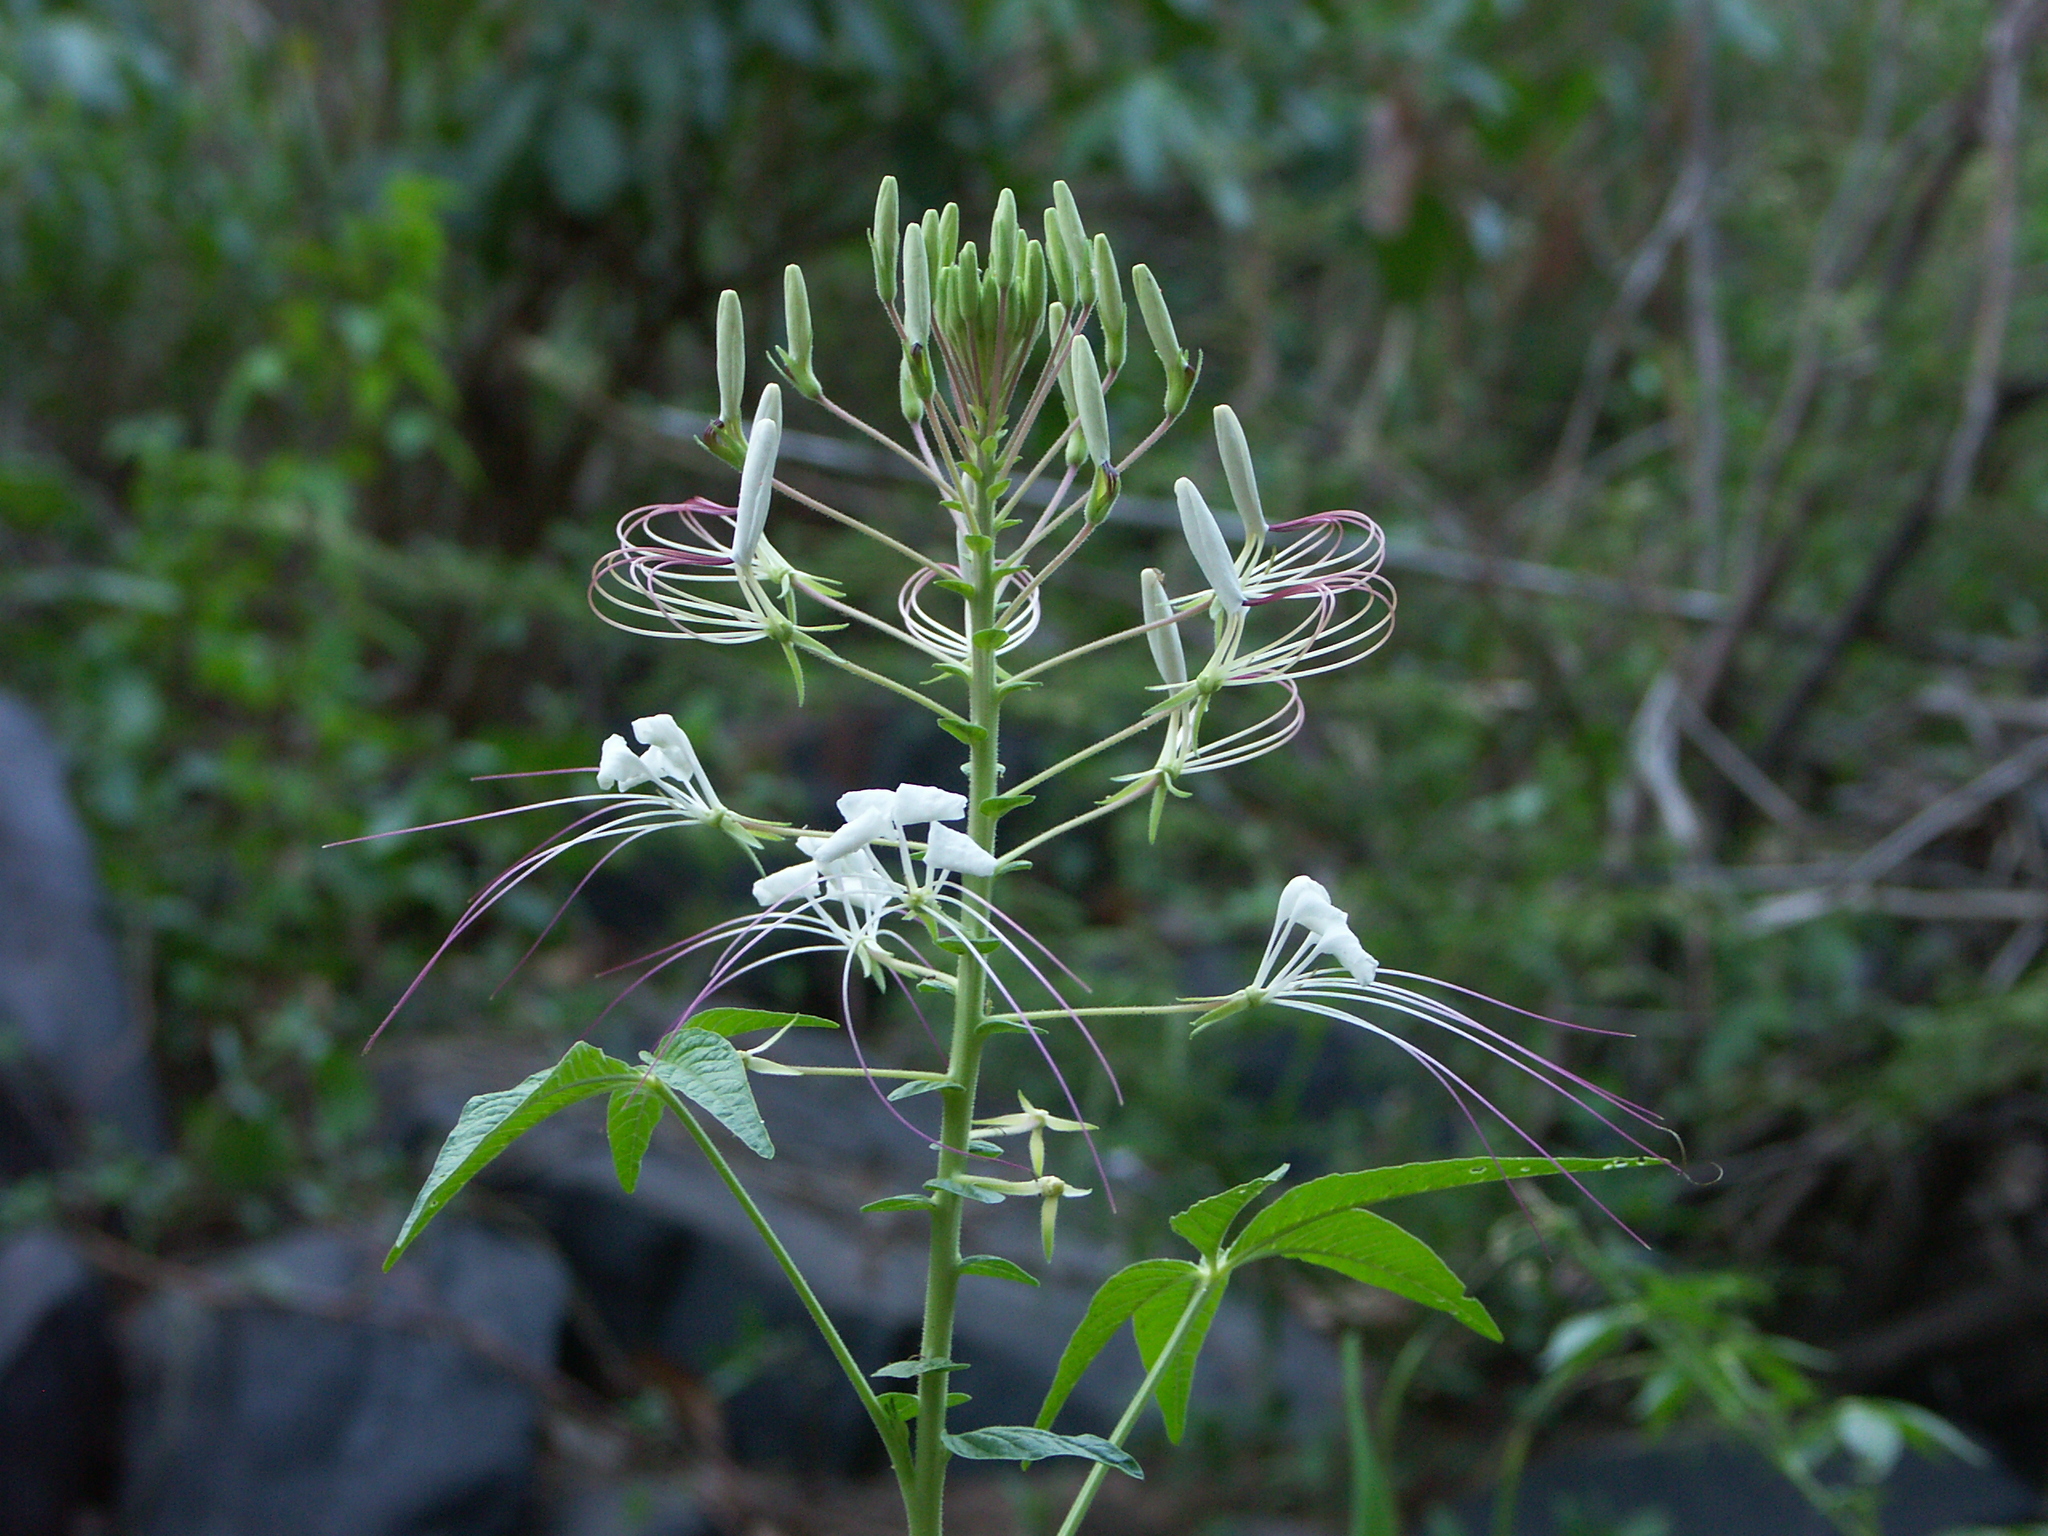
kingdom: Plantae
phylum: Tracheophyta
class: Magnoliopsida
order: Brassicales
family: Cleomaceae
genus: Tarenaya
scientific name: Tarenaya longicarpa
